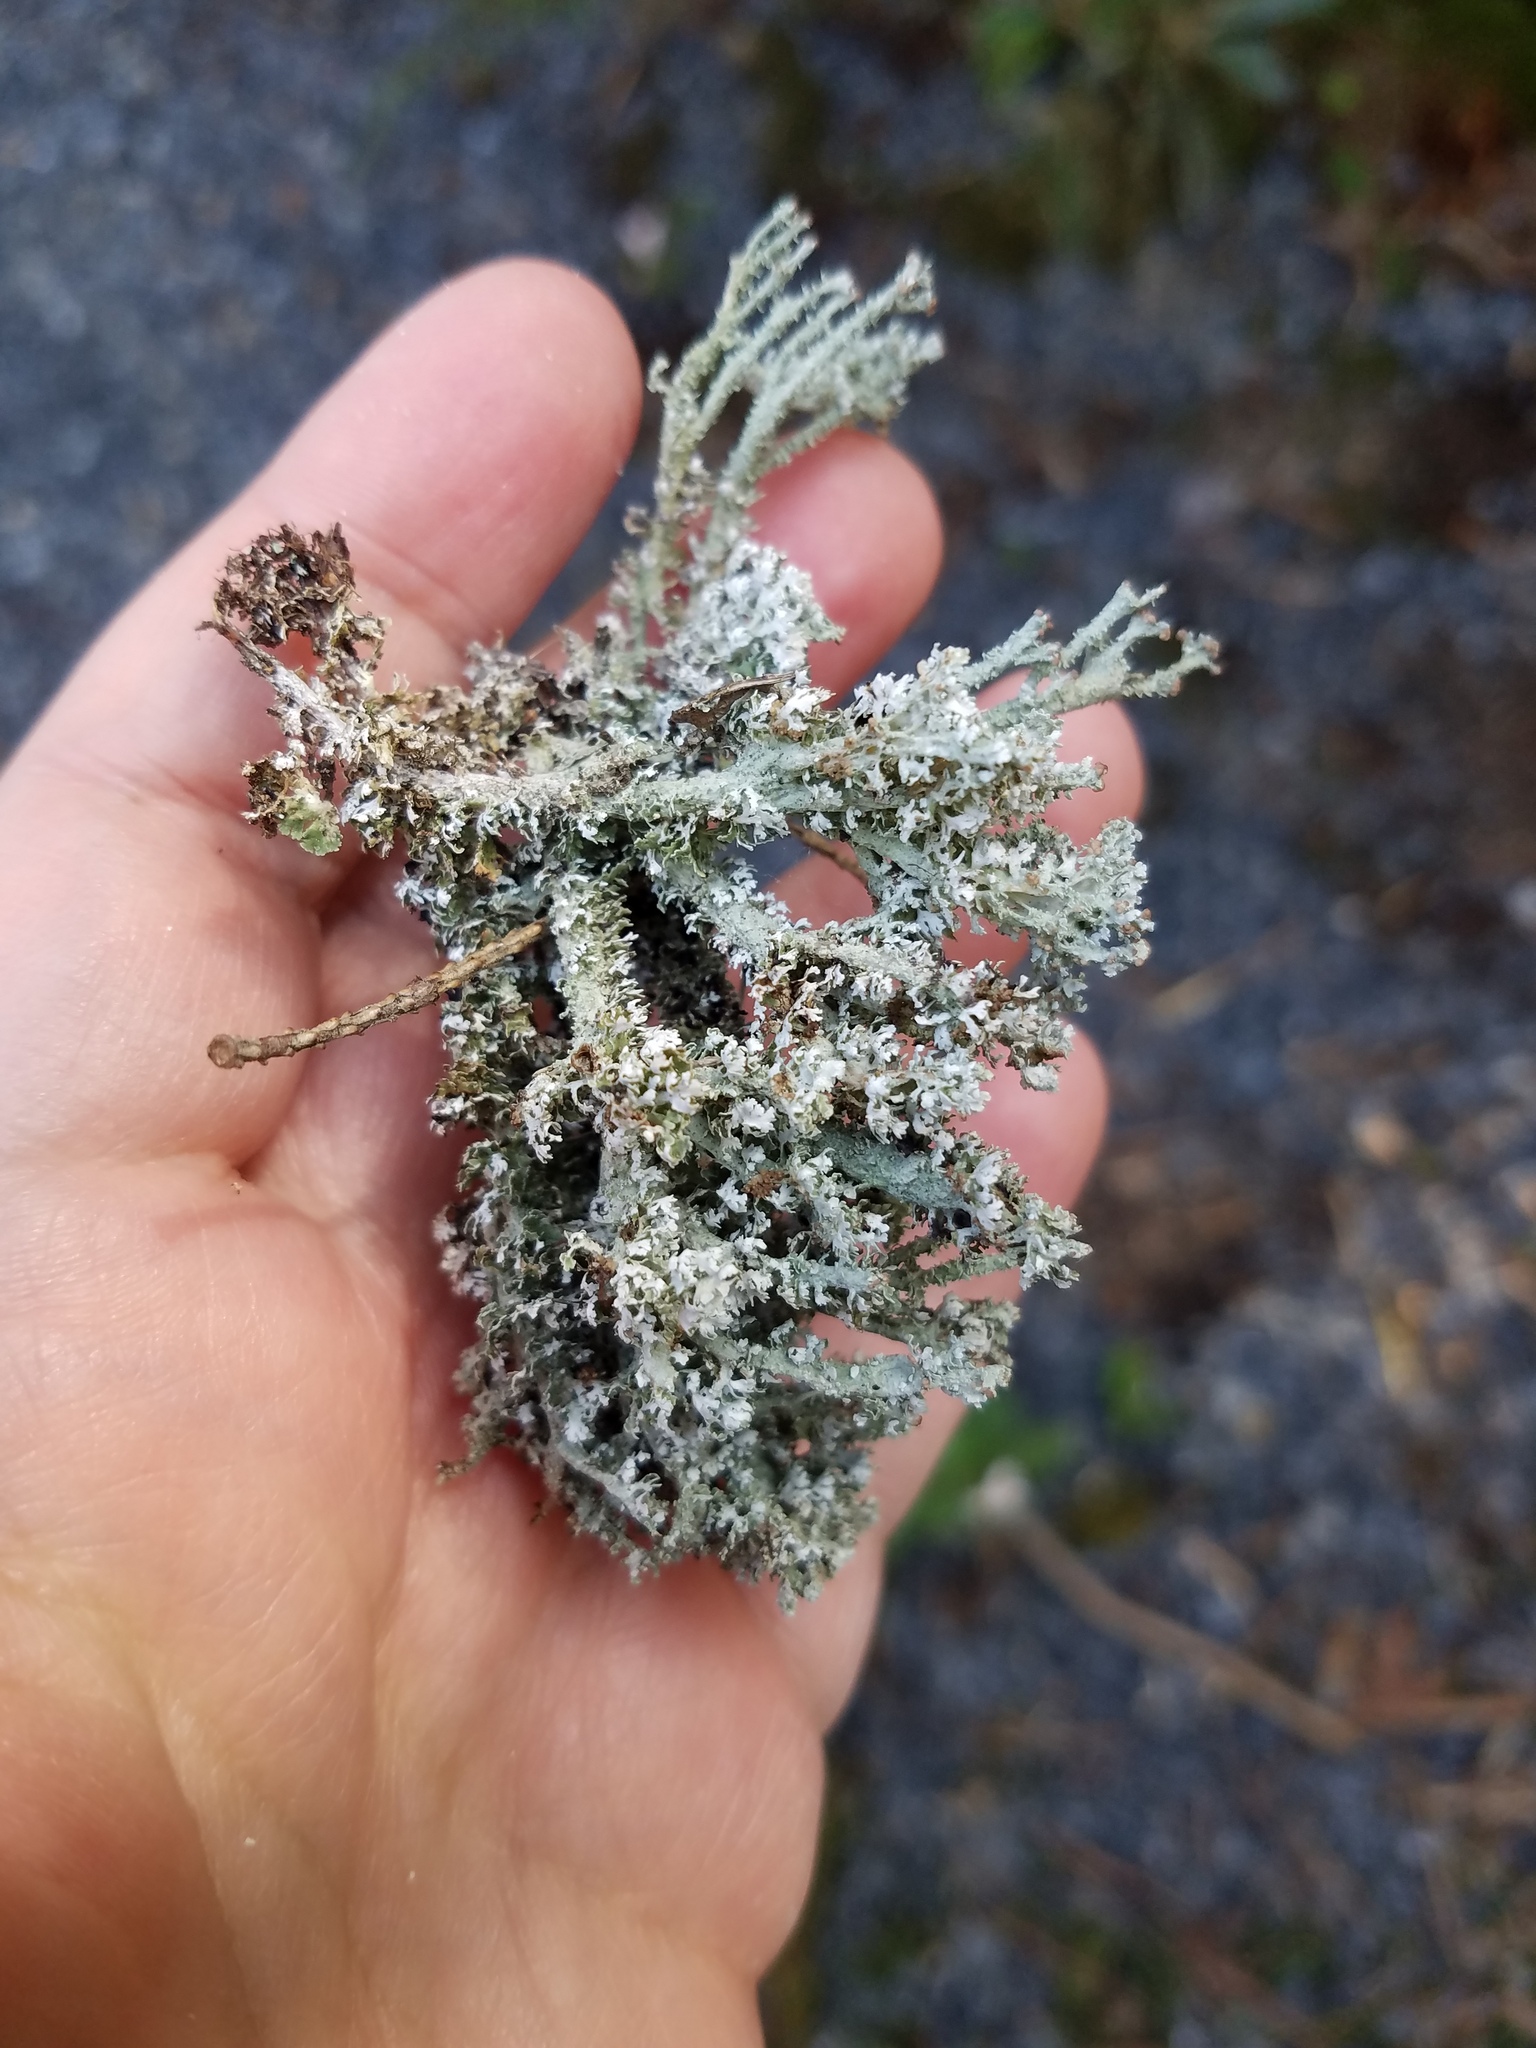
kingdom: Fungi
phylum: Ascomycota
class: Lecanoromycetes
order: Lecanorales
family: Cladoniaceae
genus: Cladonia
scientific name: Cladonia squamosa
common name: Dragon horn
